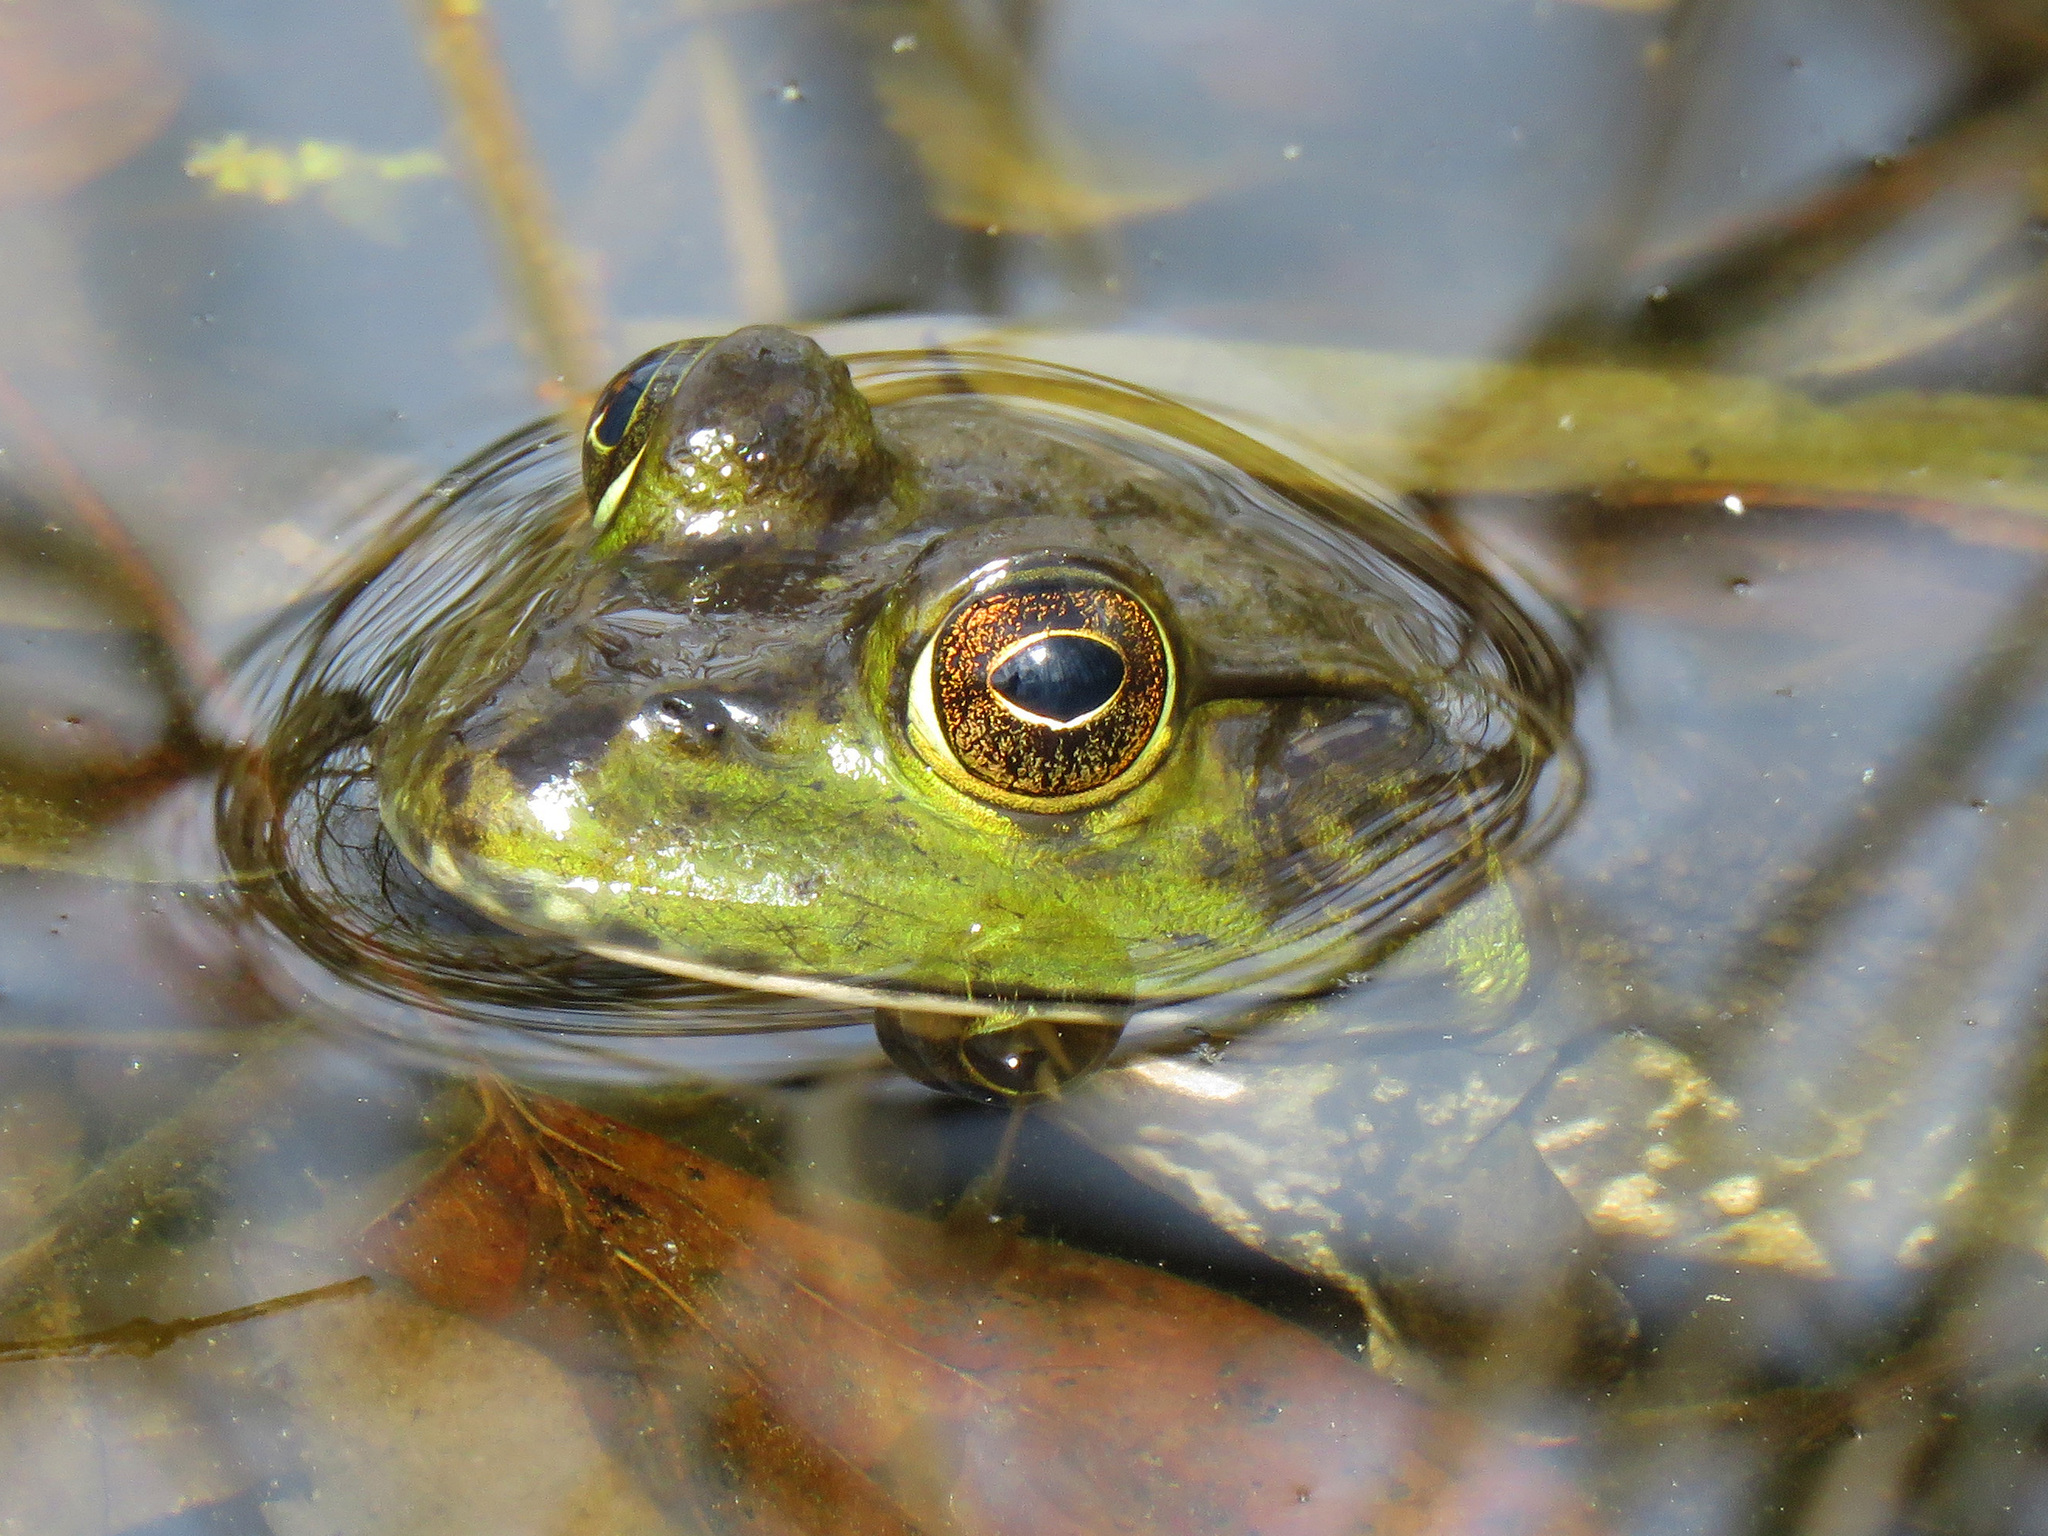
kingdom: Animalia
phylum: Chordata
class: Amphibia
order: Anura
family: Ranidae
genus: Lithobates
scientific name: Lithobates catesbeianus
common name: American bullfrog
